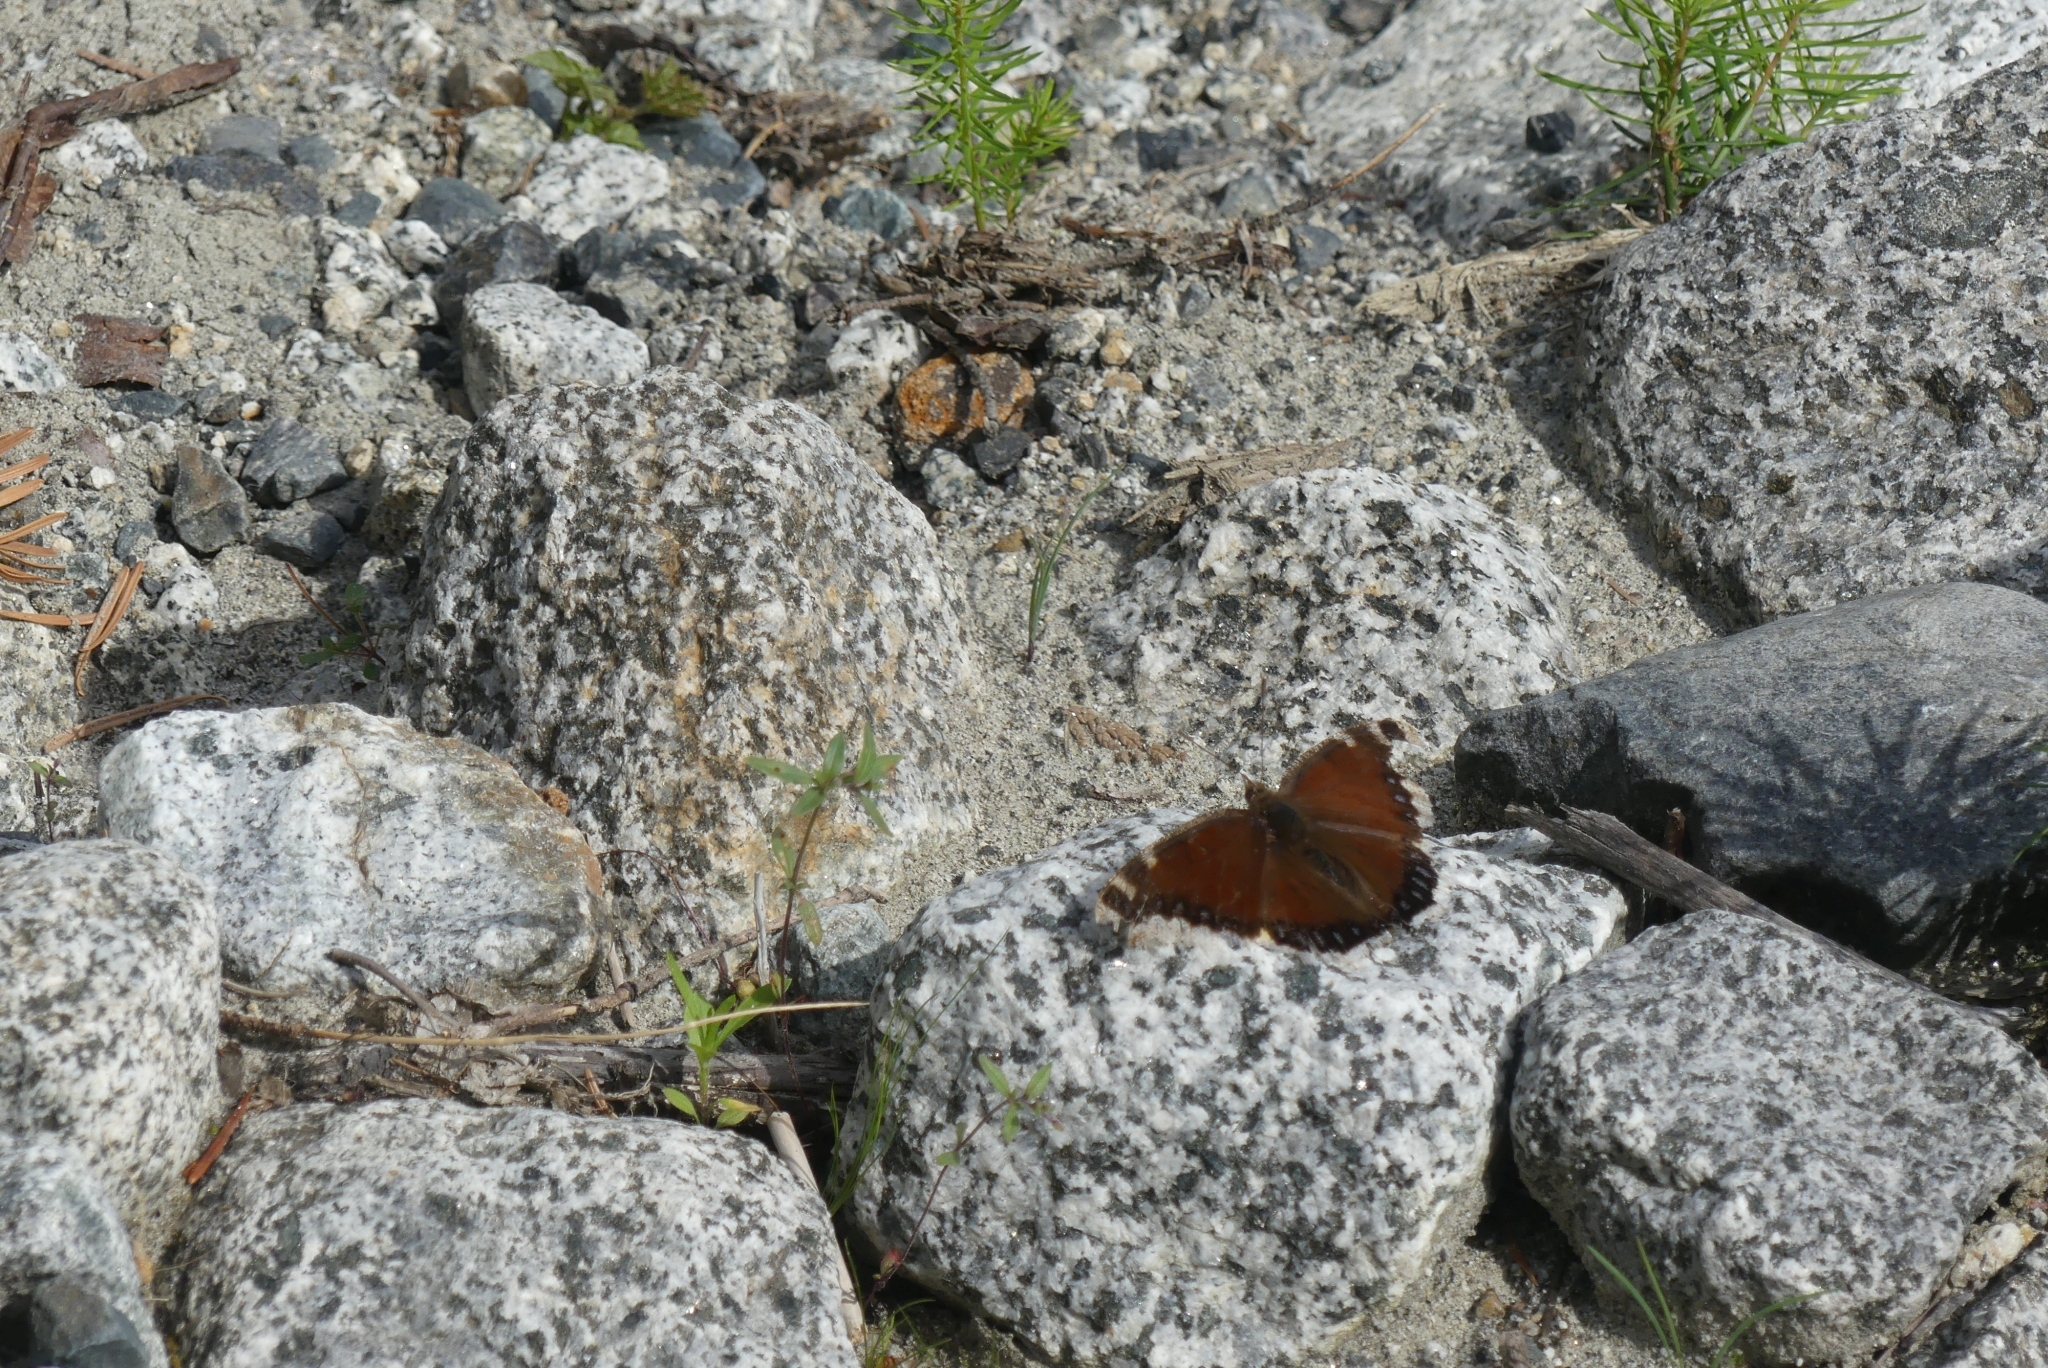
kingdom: Animalia
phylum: Arthropoda
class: Insecta
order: Lepidoptera
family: Nymphalidae
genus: Nymphalis
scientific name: Nymphalis antiopa
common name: Camberwell beauty
